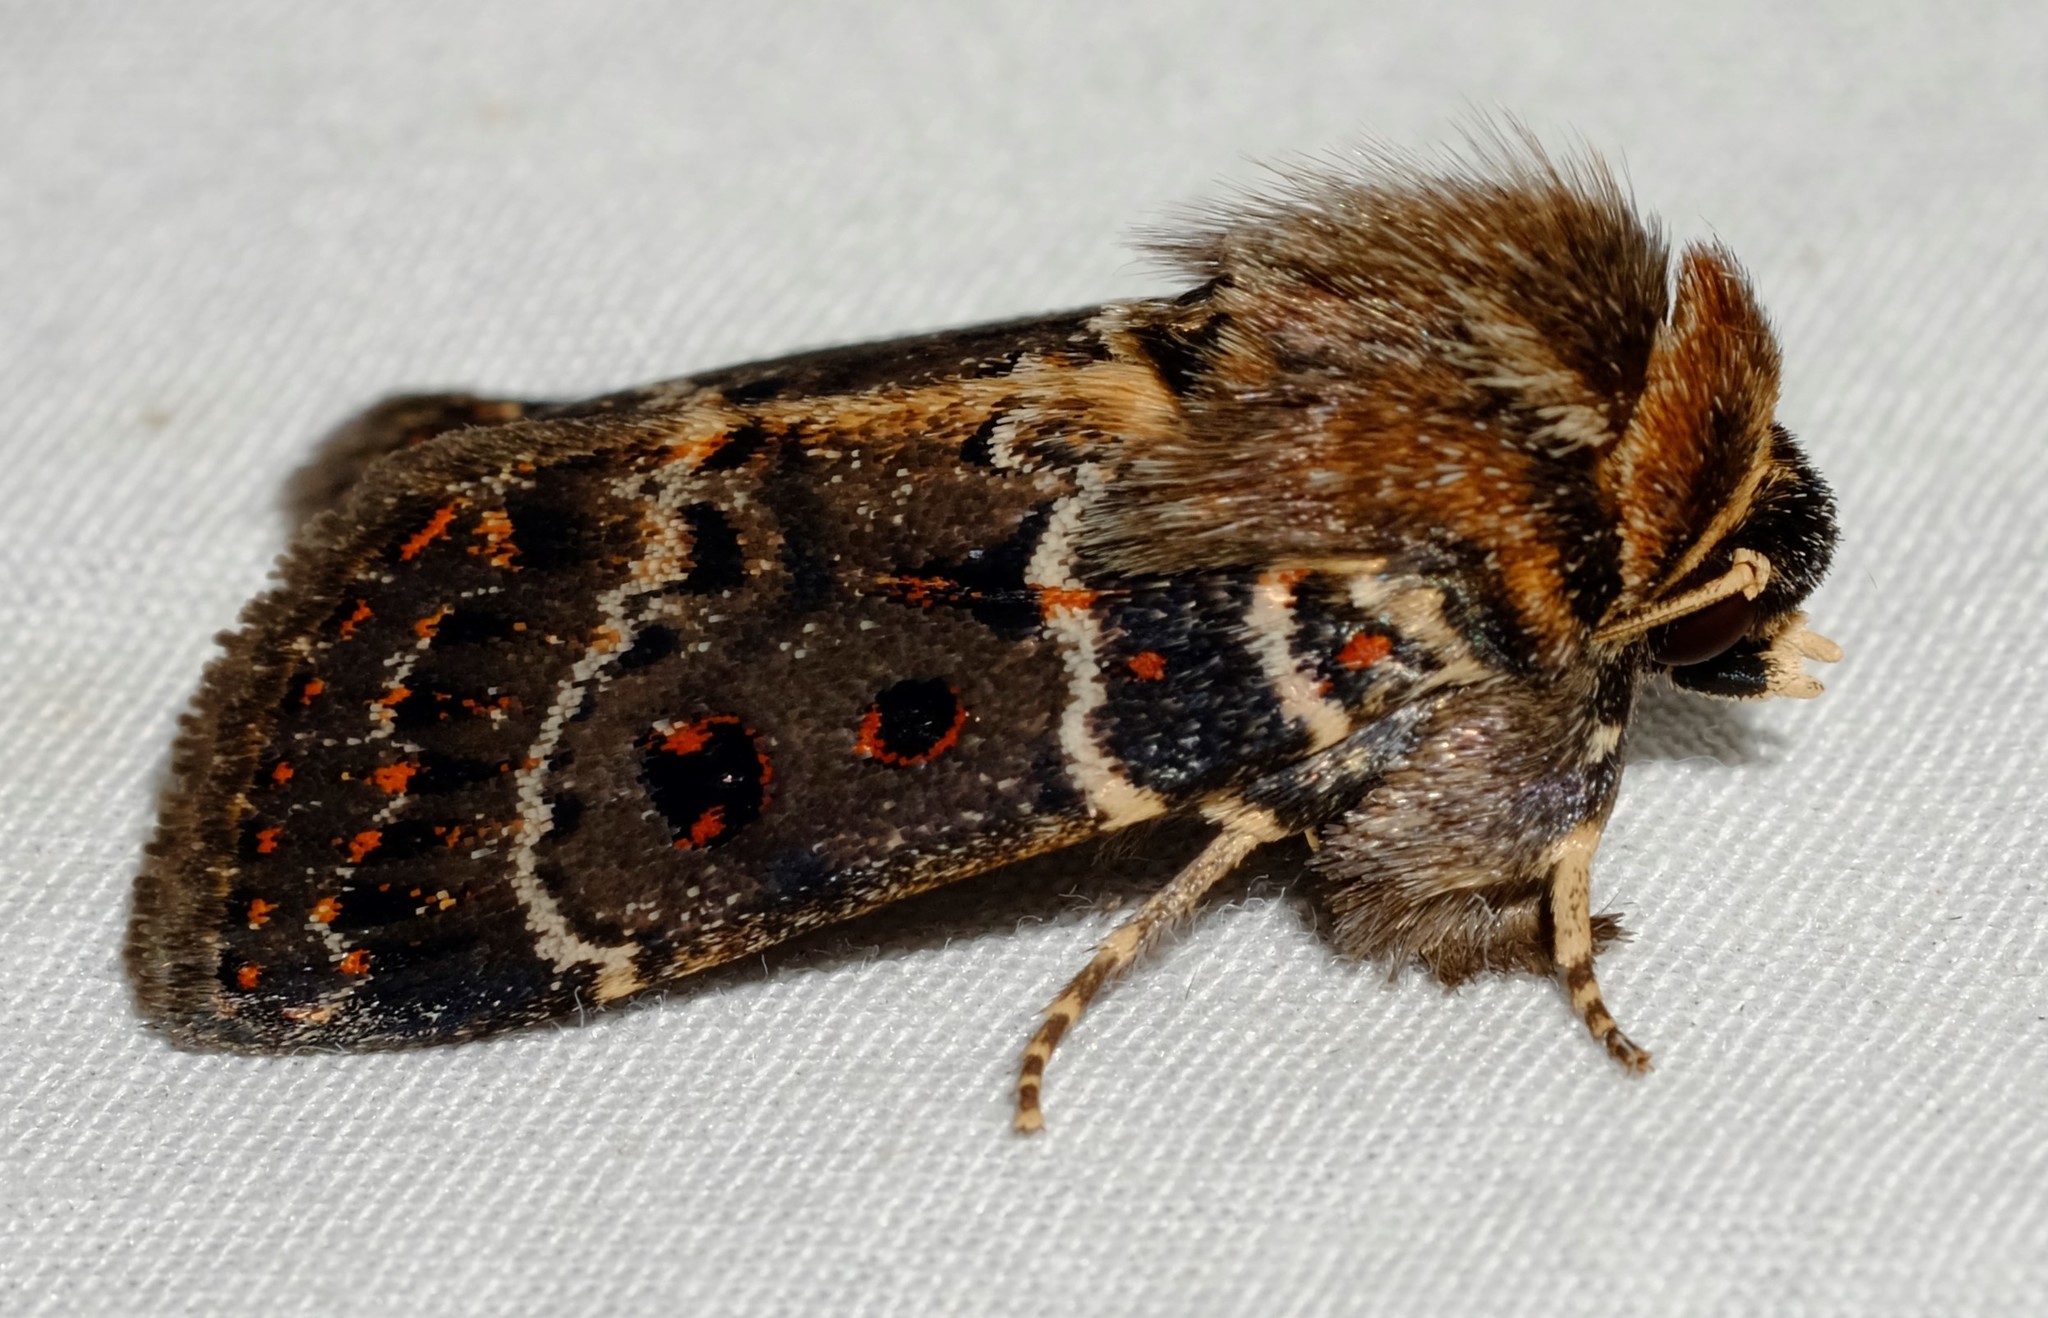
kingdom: Animalia
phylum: Arthropoda
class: Insecta
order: Lepidoptera
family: Noctuidae
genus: Proteuxoa
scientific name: Proteuxoa sanguinipuncta
